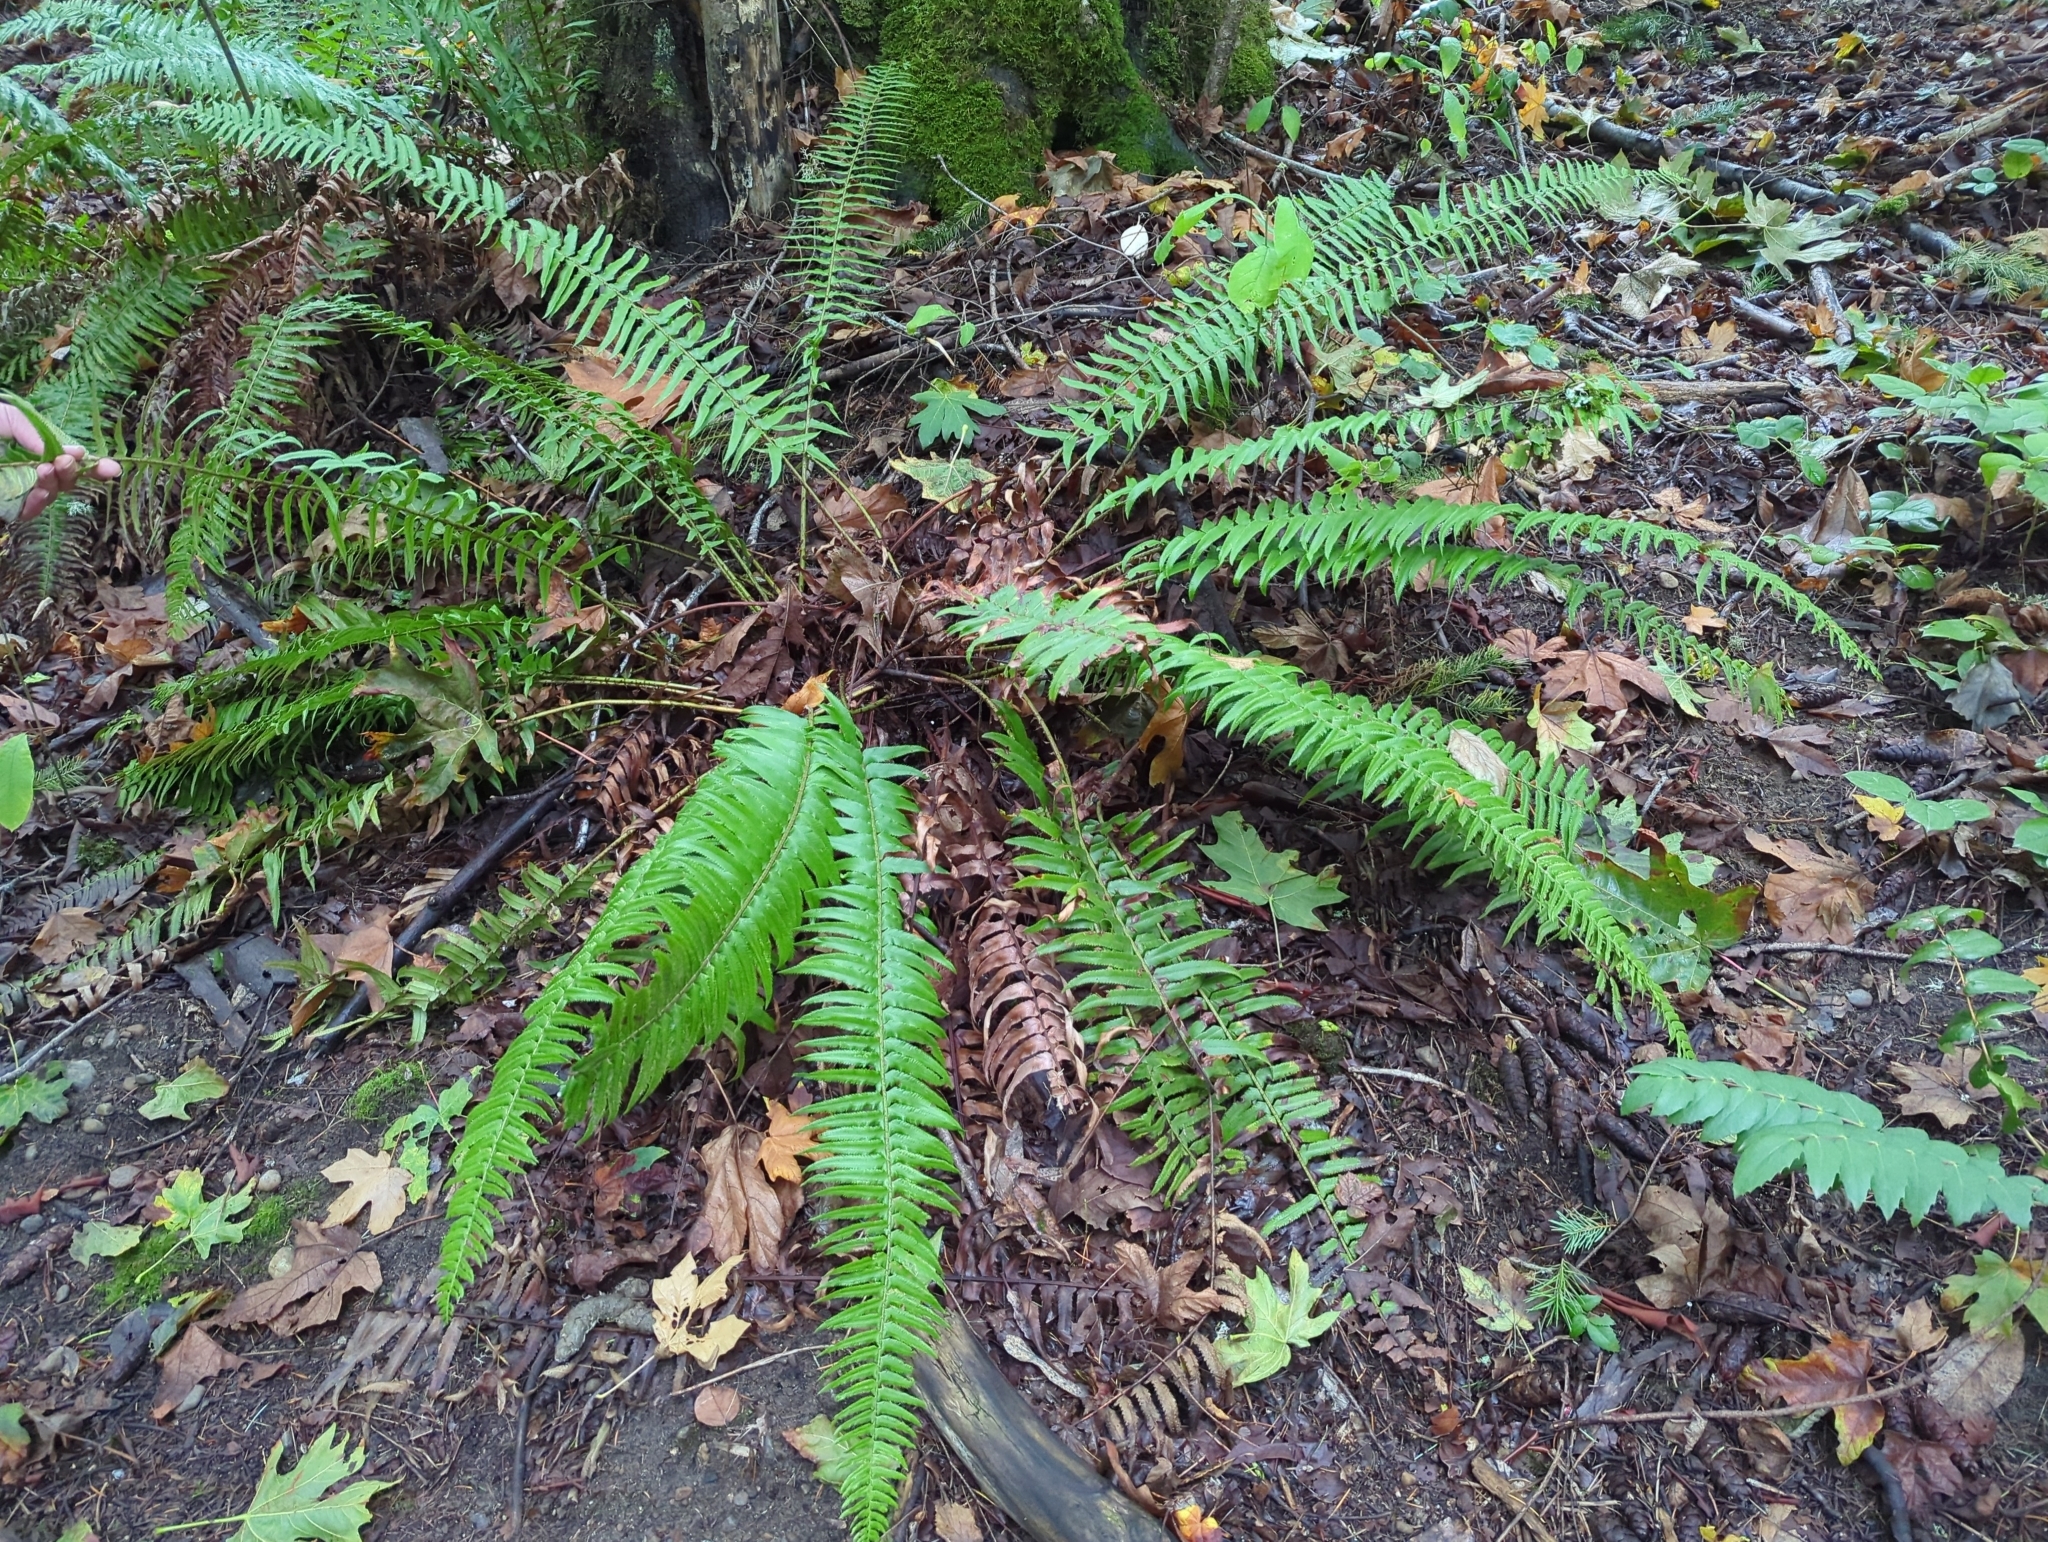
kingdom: Plantae
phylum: Tracheophyta
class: Polypodiopsida
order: Polypodiales
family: Dryopteridaceae
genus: Polystichum
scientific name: Polystichum munitum
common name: Western sword-fern
